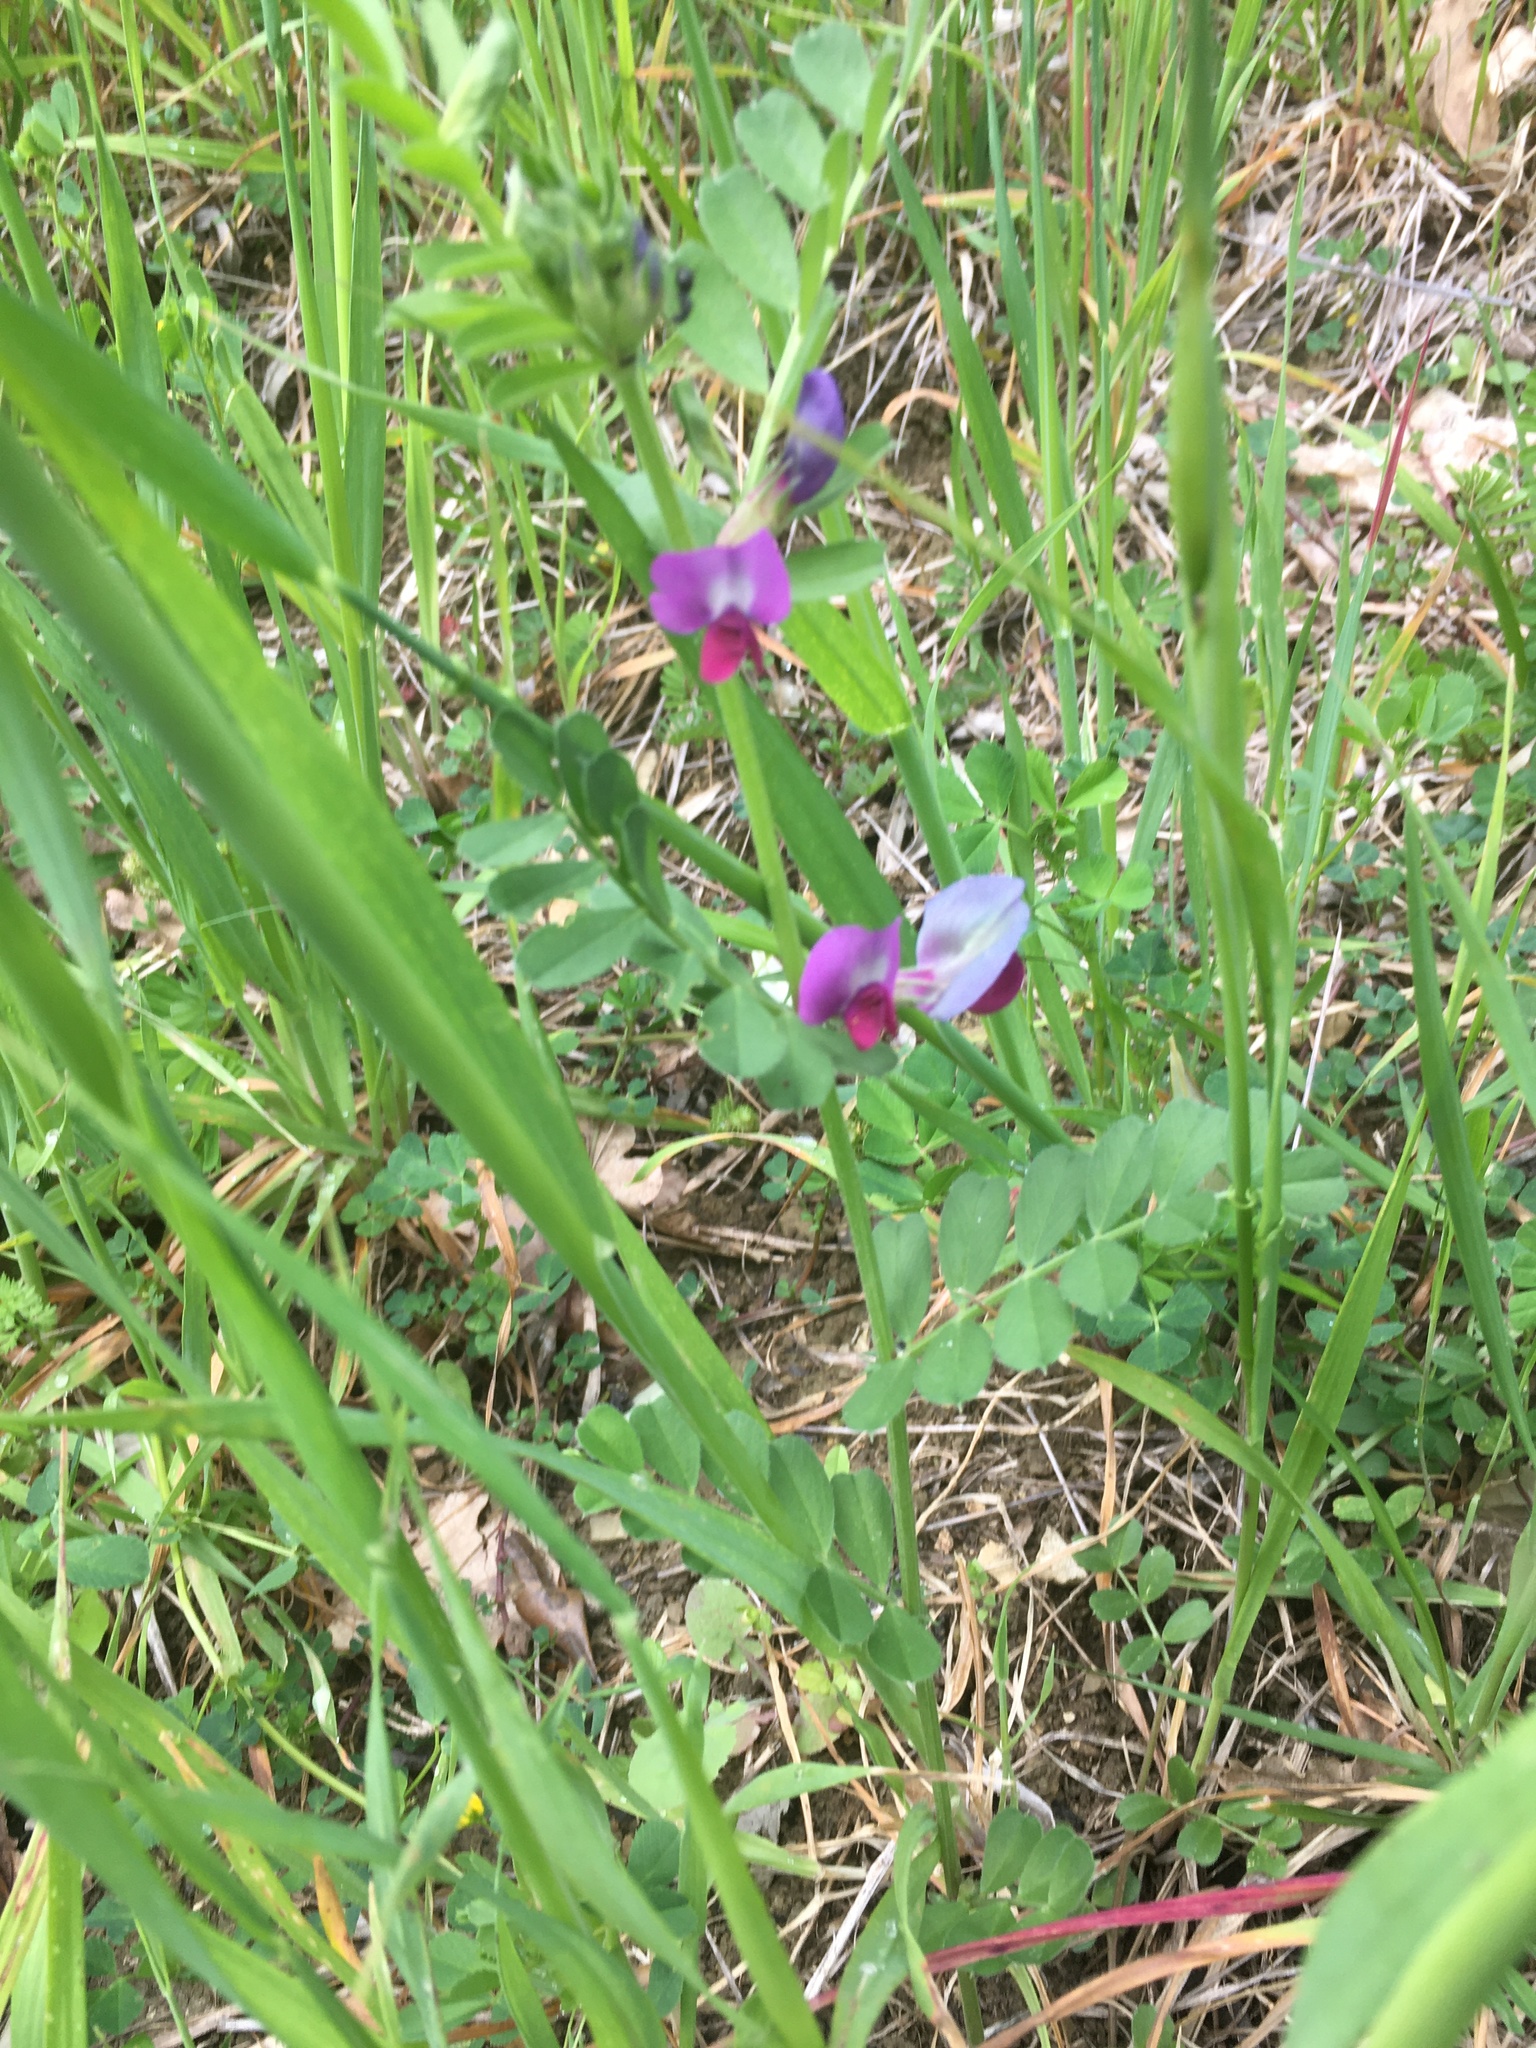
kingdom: Plantae
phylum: Tracheophyta
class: Magnoliopsida
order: Fabales
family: Fabaceae
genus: Vicia
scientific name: Vicia sativa
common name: Garden vetch
